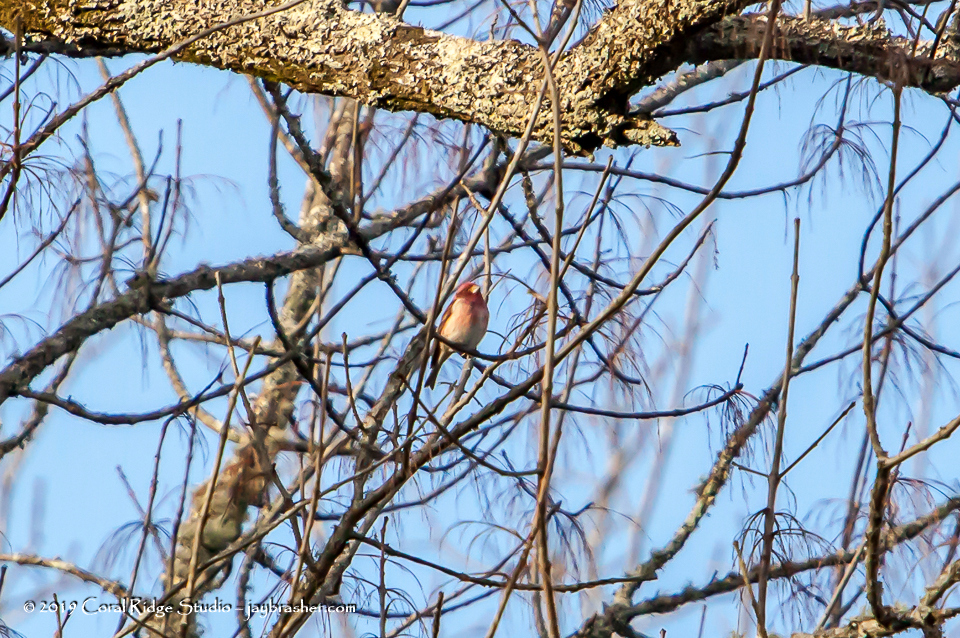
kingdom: Animalia
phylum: Chordata
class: Aves
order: Passeriformes
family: Fringillidae
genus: Haemorhous
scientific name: Haemorhous mexicanus
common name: House finch
